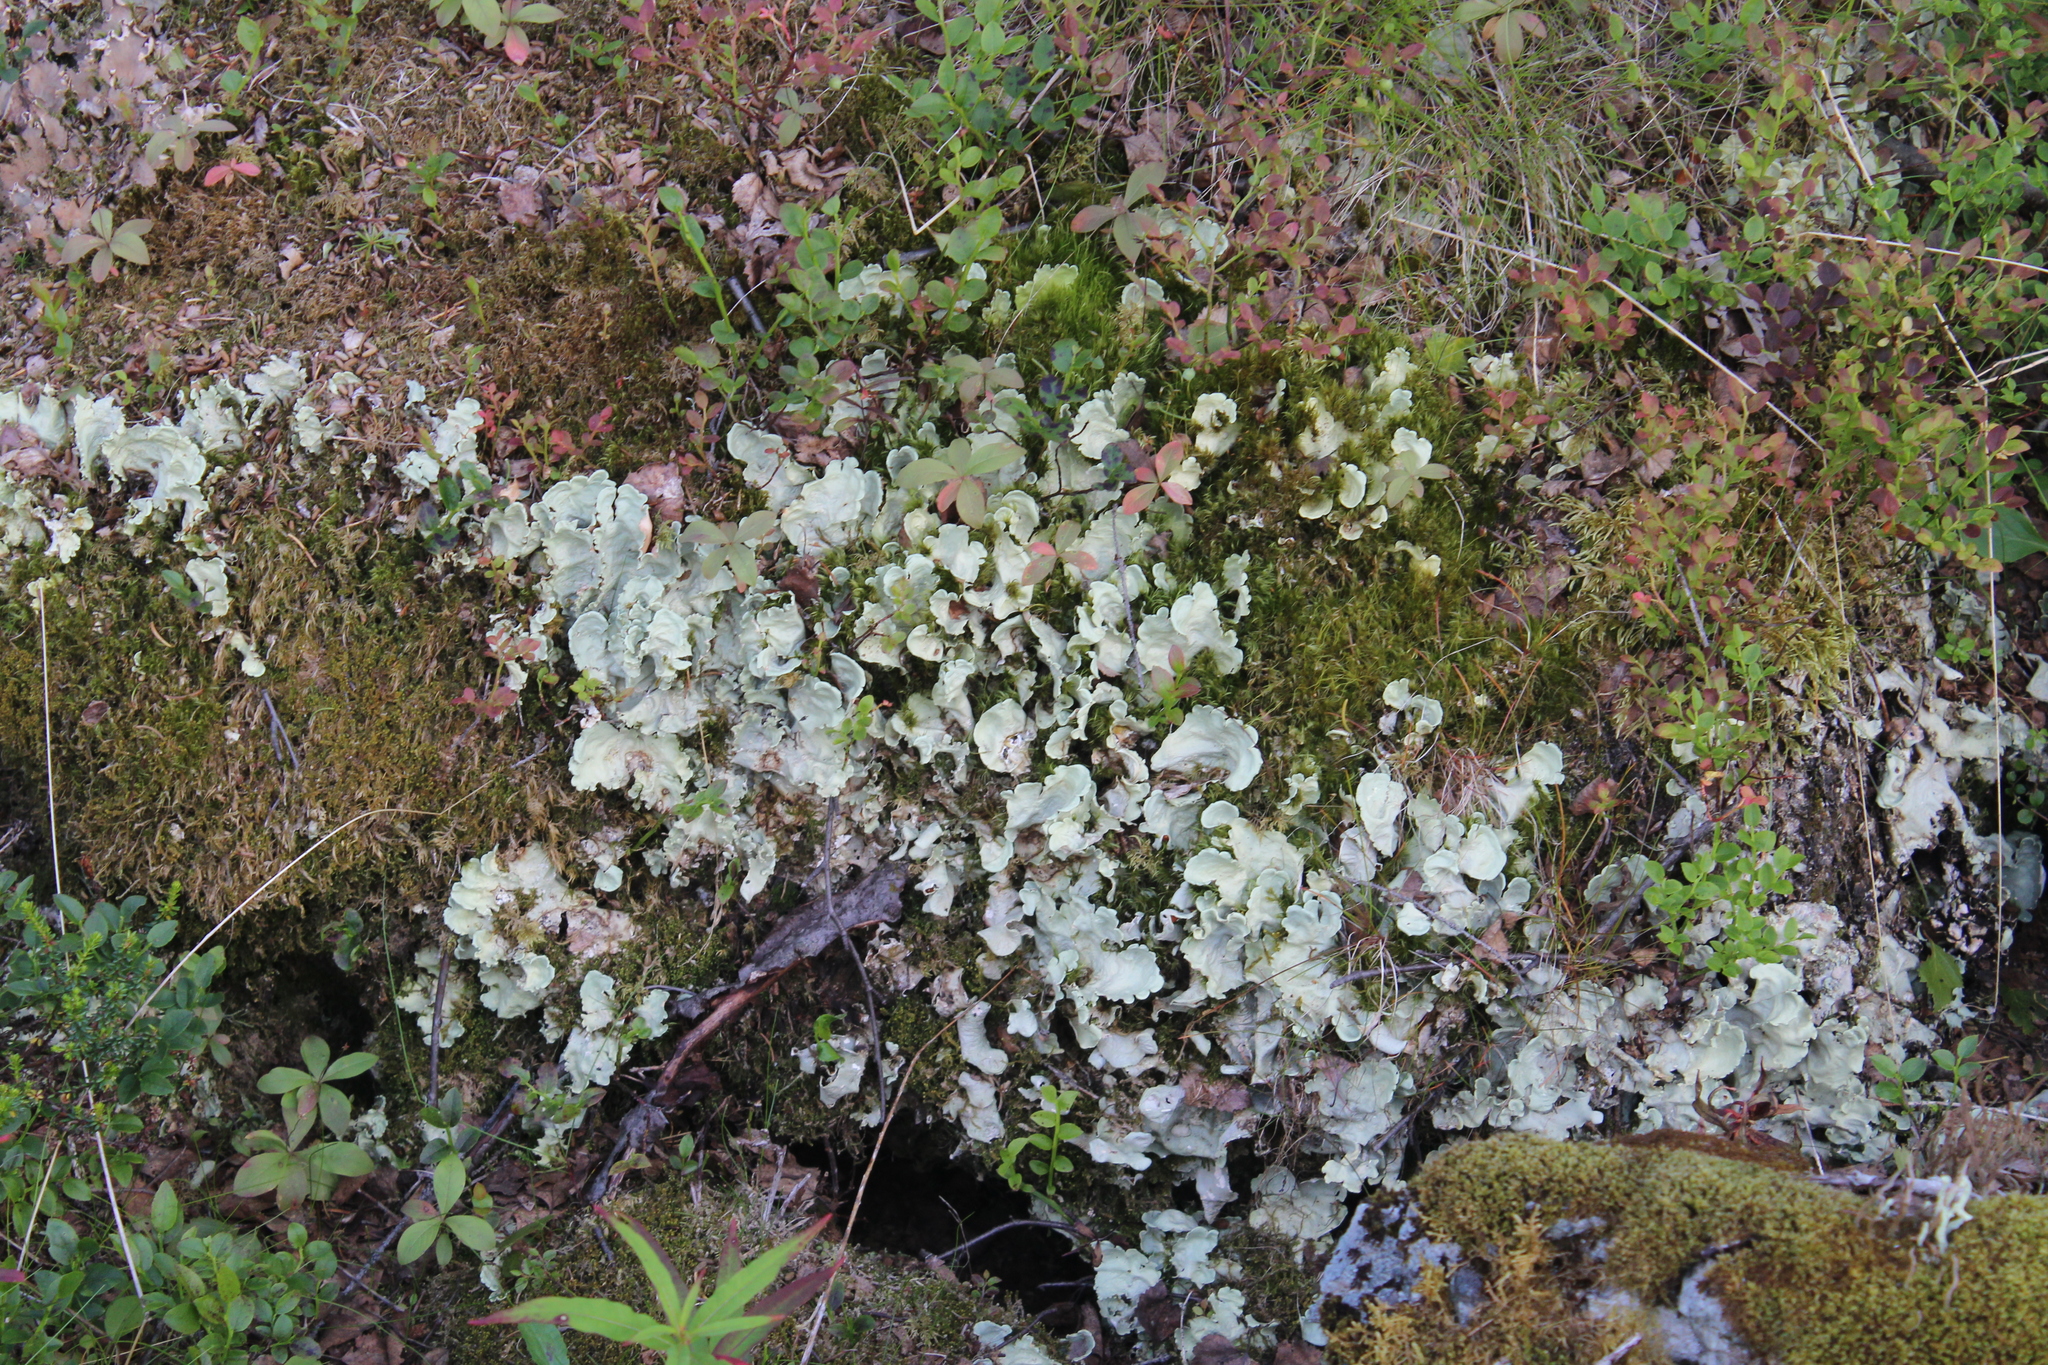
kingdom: Fungi
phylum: Ascomycota
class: Lecanoromycetes
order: Peltigerales
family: Nephromataceae
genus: Nephroma
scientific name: Nephroma arcticum
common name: Arctic kidney-lichen
